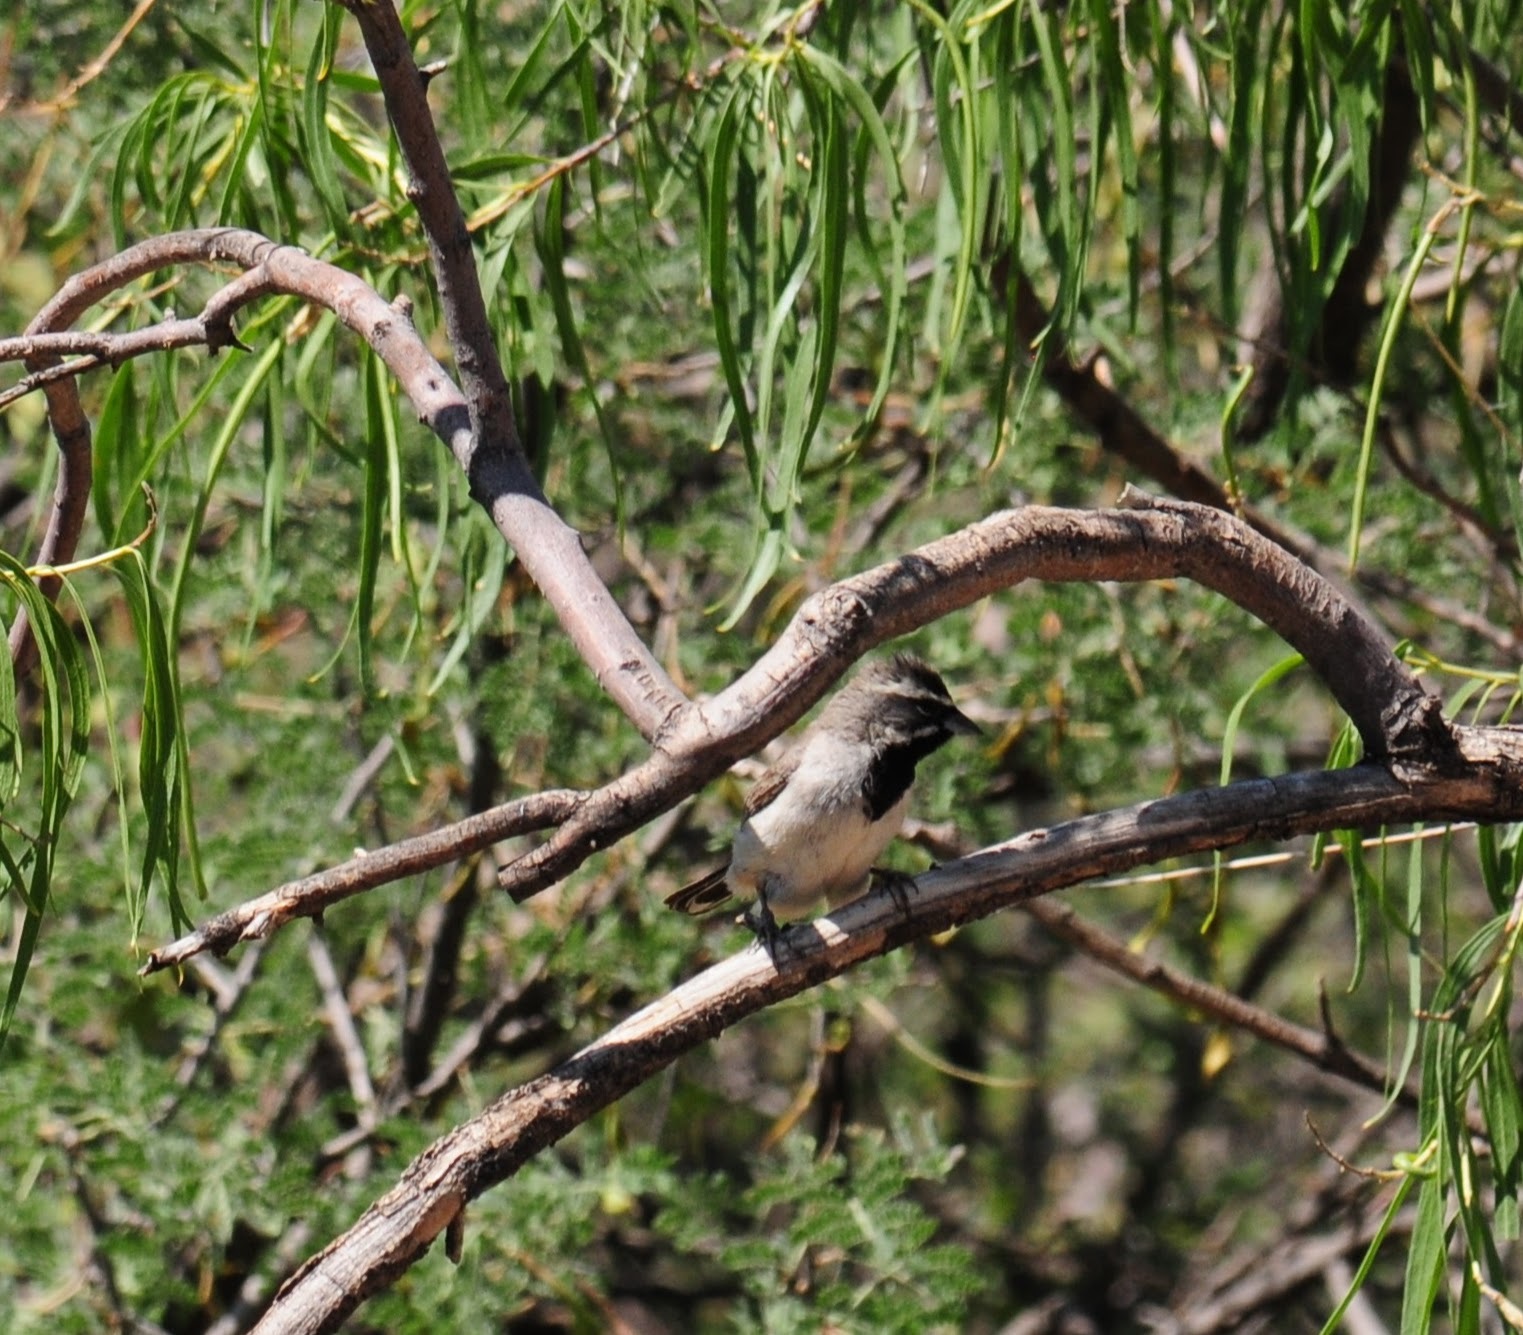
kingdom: Animalia
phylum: Chordata
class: Aves
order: Passeriformes
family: Passerellidae
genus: Amphispiza
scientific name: Amphispiza bilineata
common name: Black-throated sparrow
